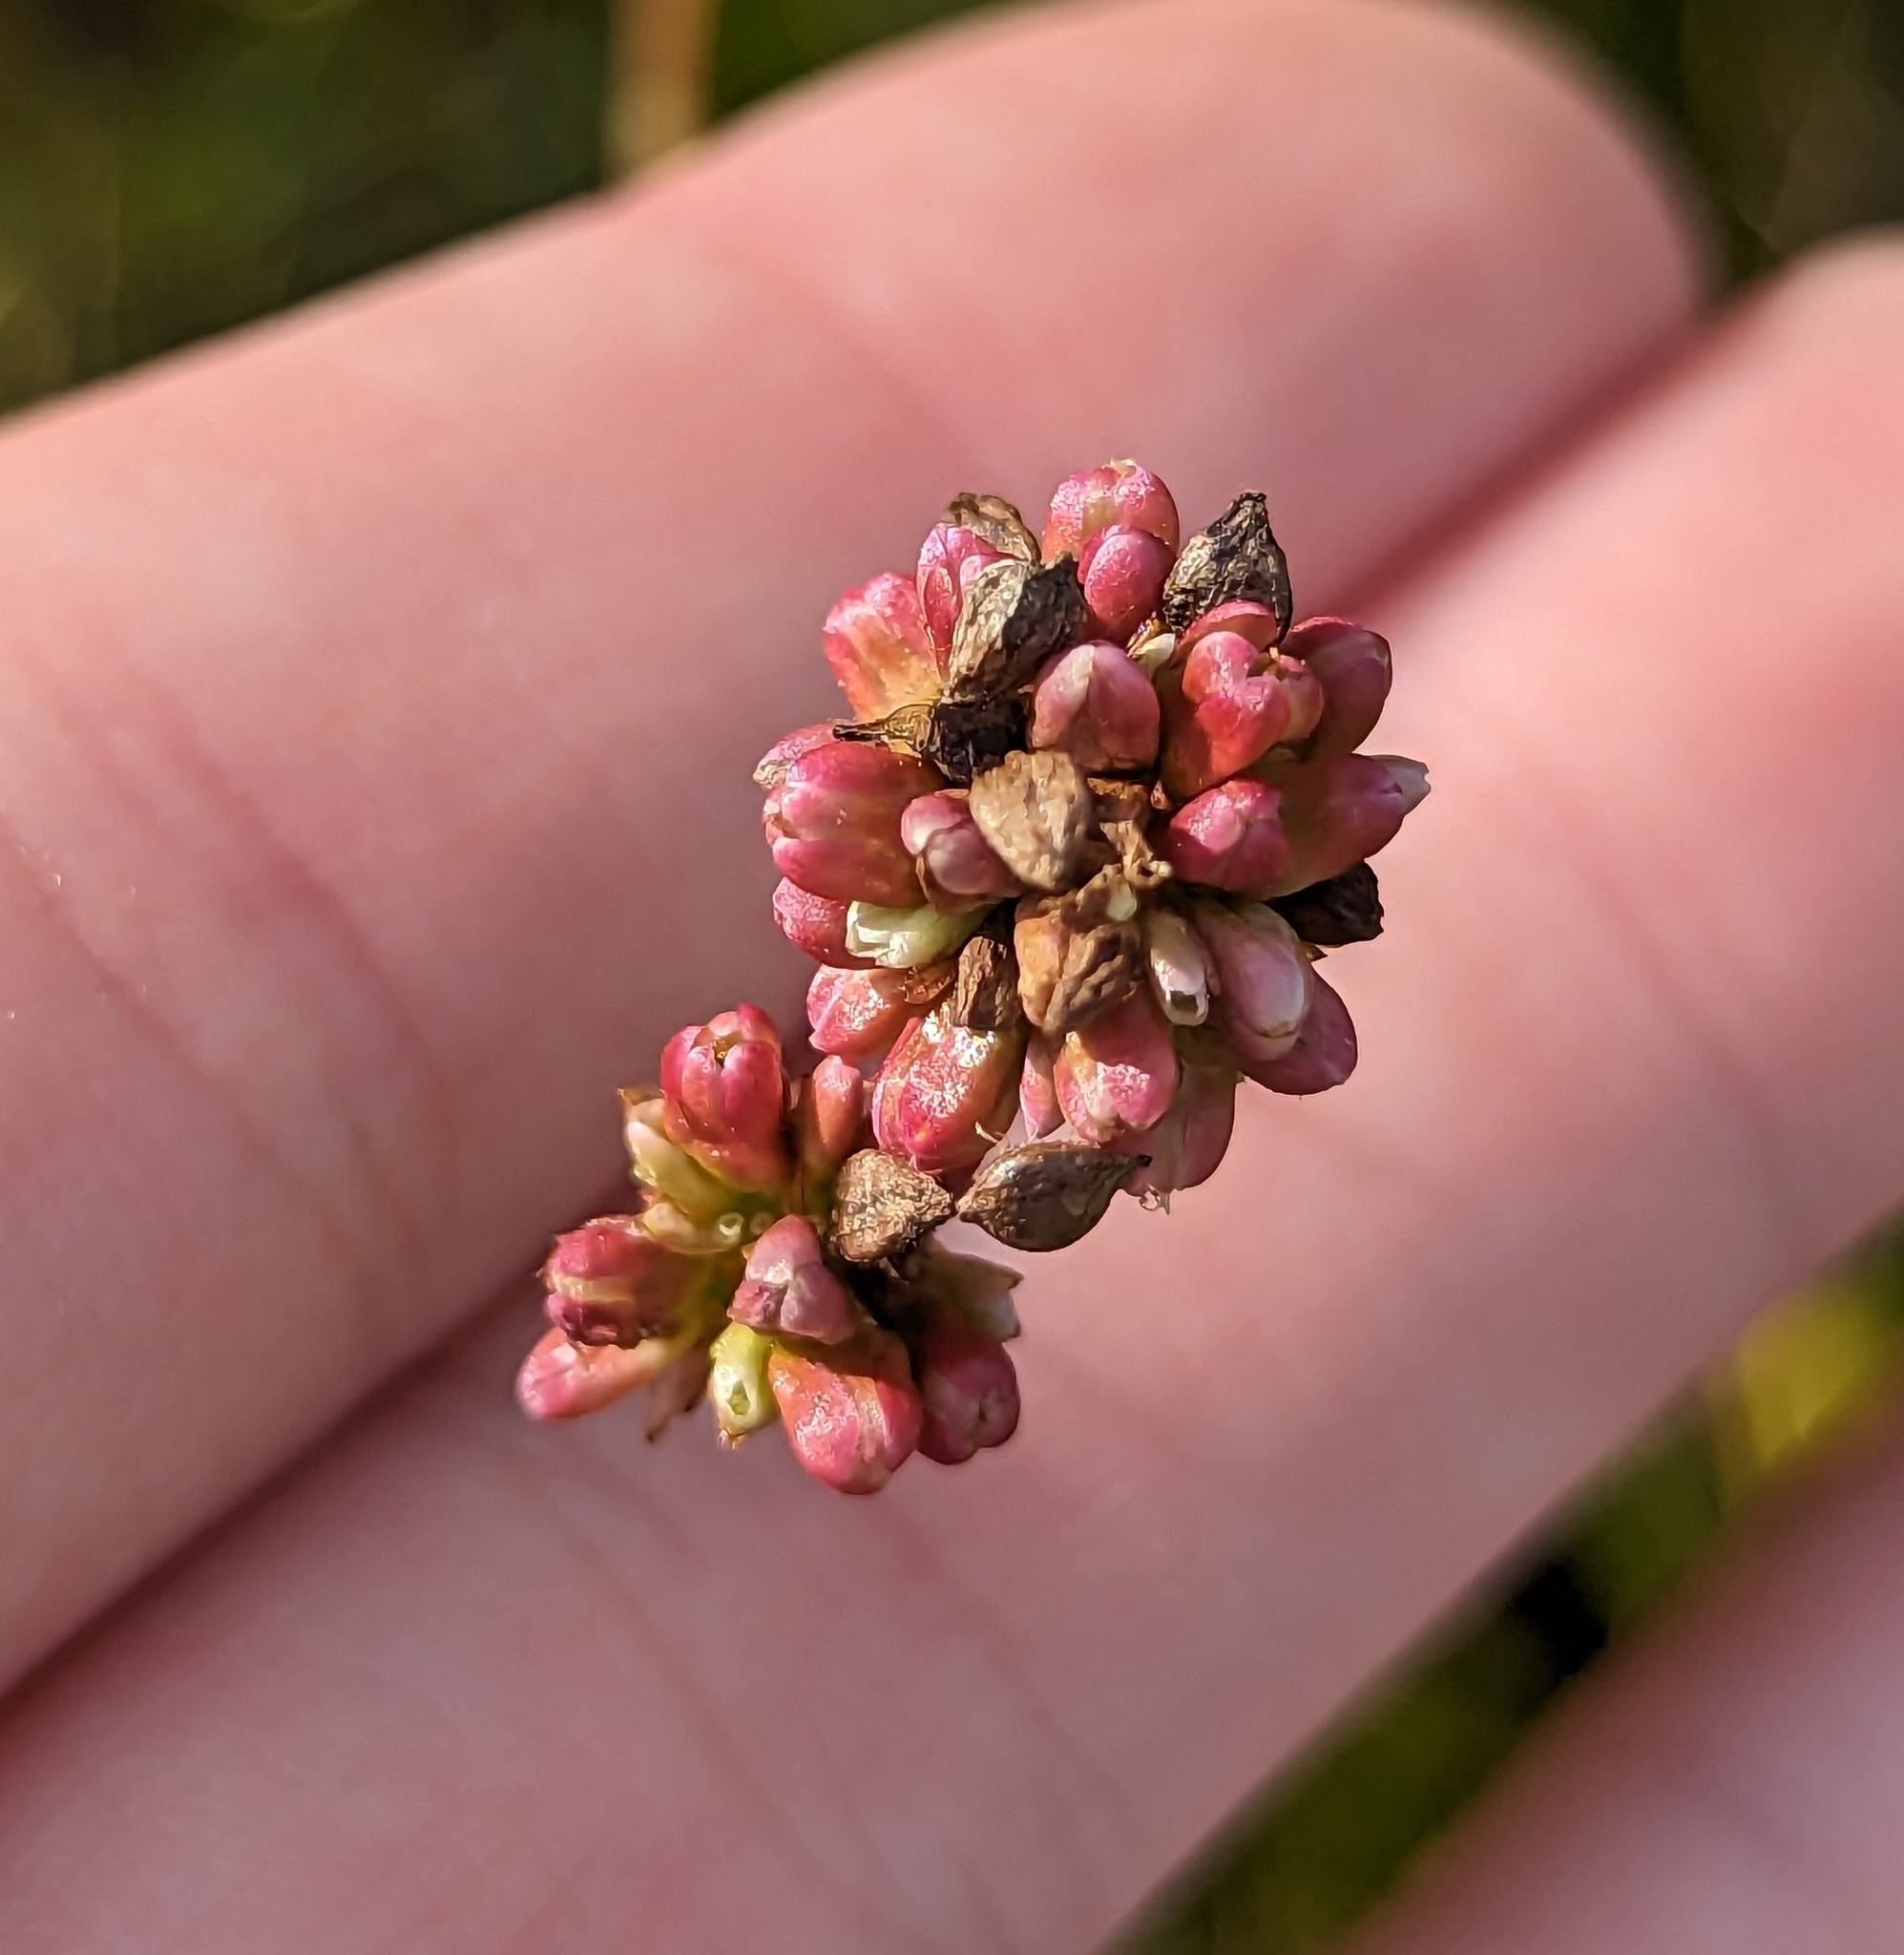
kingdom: Plantae
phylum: Tracheophyta
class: Magnoliopsida
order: Caryophyllales
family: Polygonaceae
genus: Persicaria
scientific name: Persicaria sagittata
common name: American tearthumb
